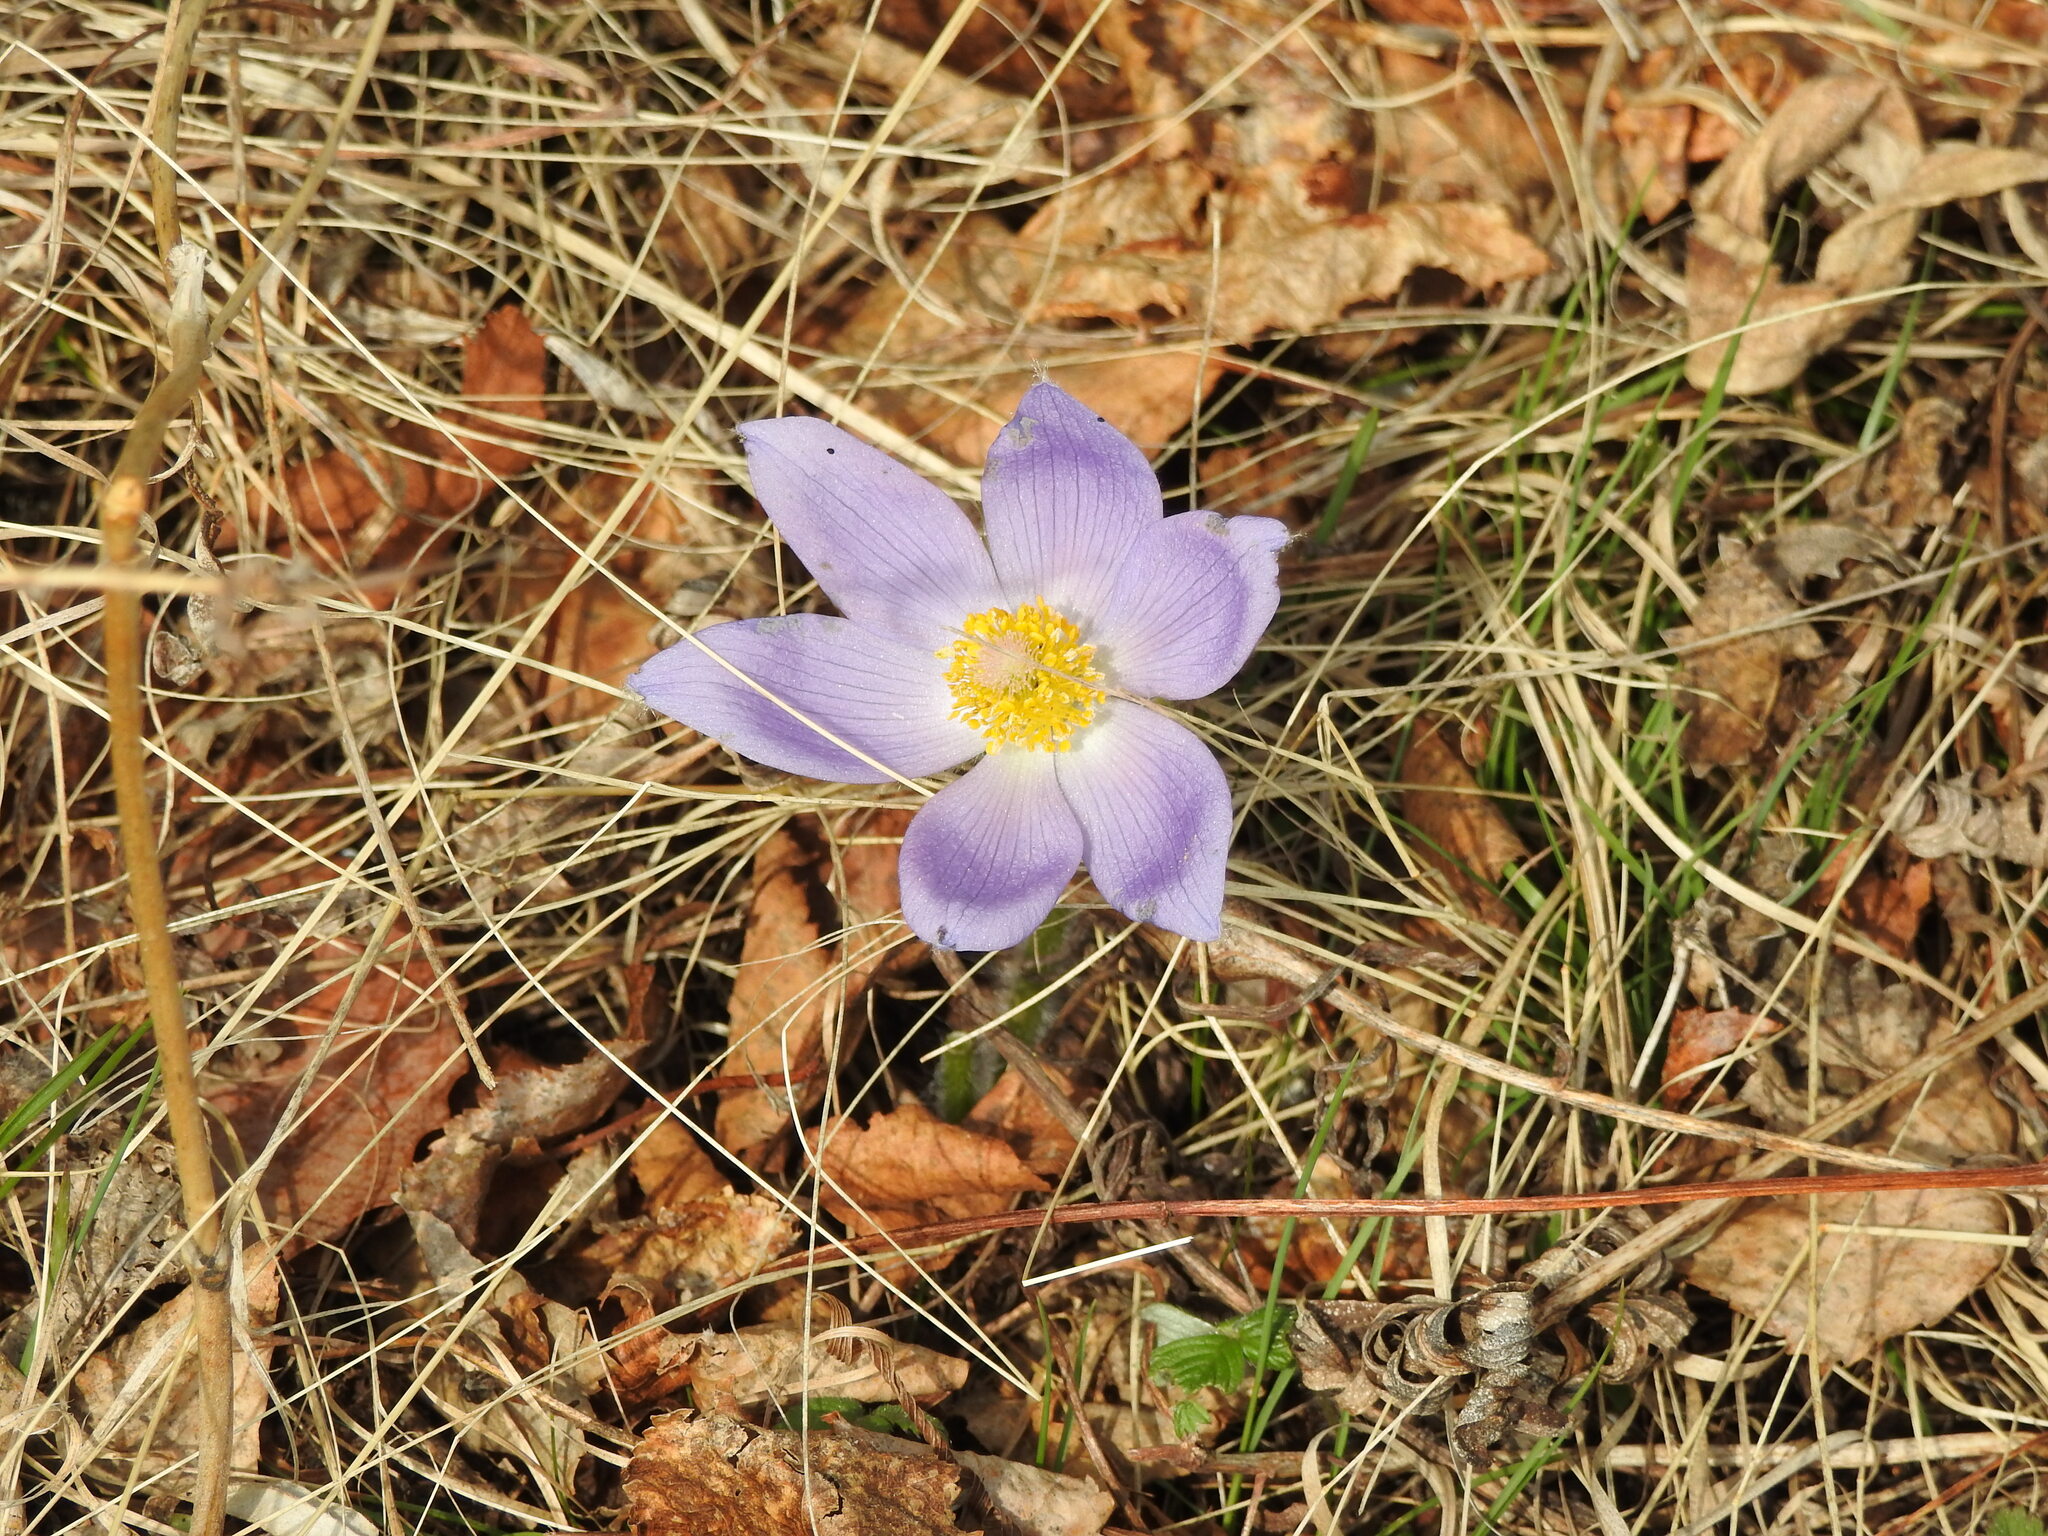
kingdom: Plantae
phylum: Tracheophyta
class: Magnoliopsida
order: Ranunculales
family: Ranunculaceae
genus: Pulsatilla
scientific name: Pulsatilla patens
